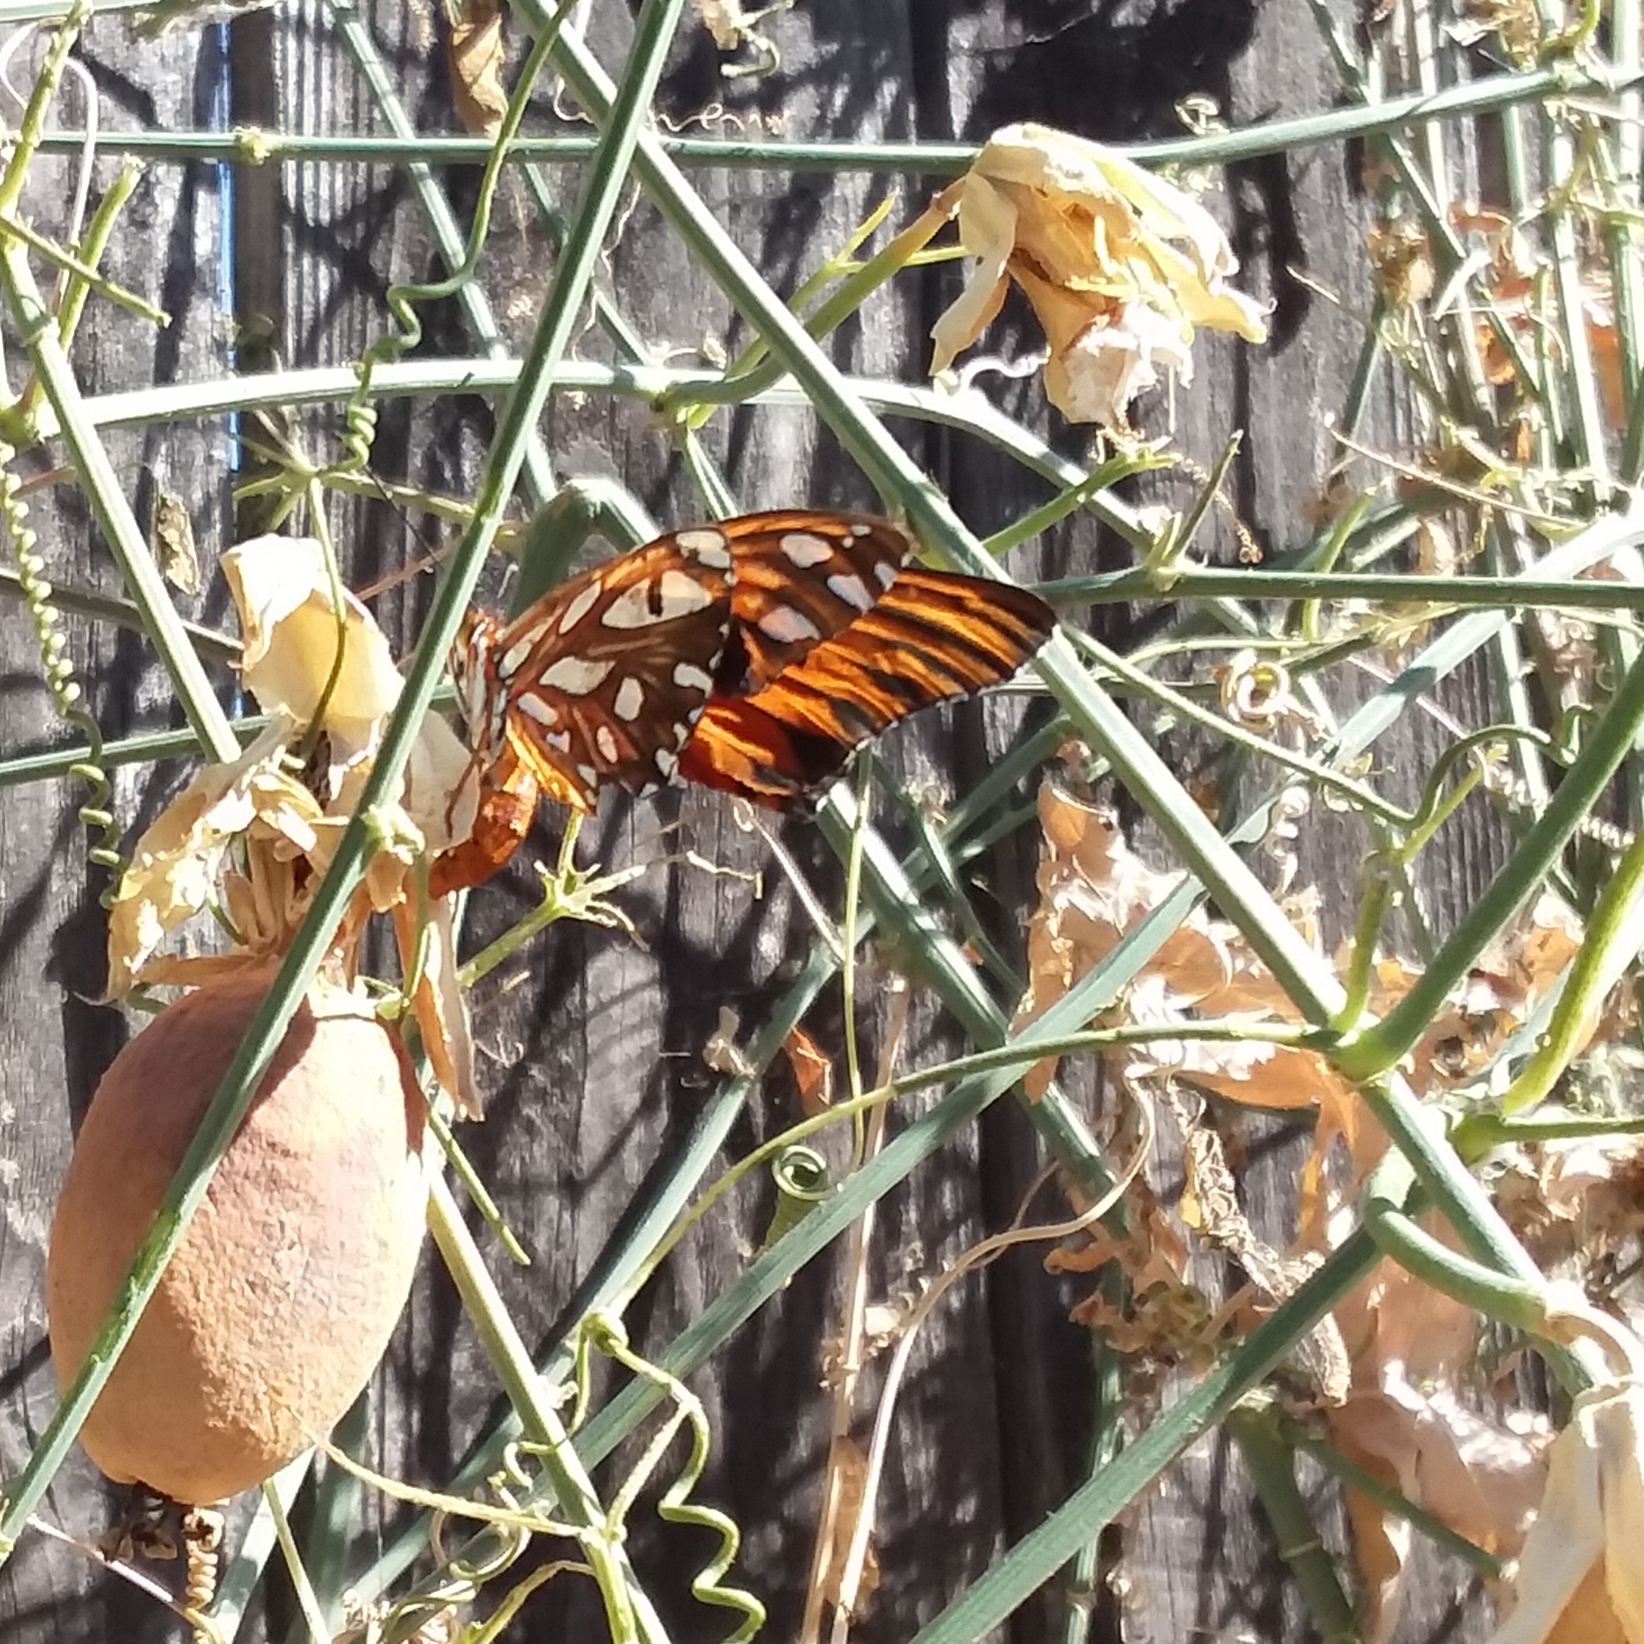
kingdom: Animalia
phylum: Arthropoda
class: Insecta
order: Lepidoptera
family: Nymphalidae
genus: Dione
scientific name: Dione vanillae
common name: Gulf fritillary
